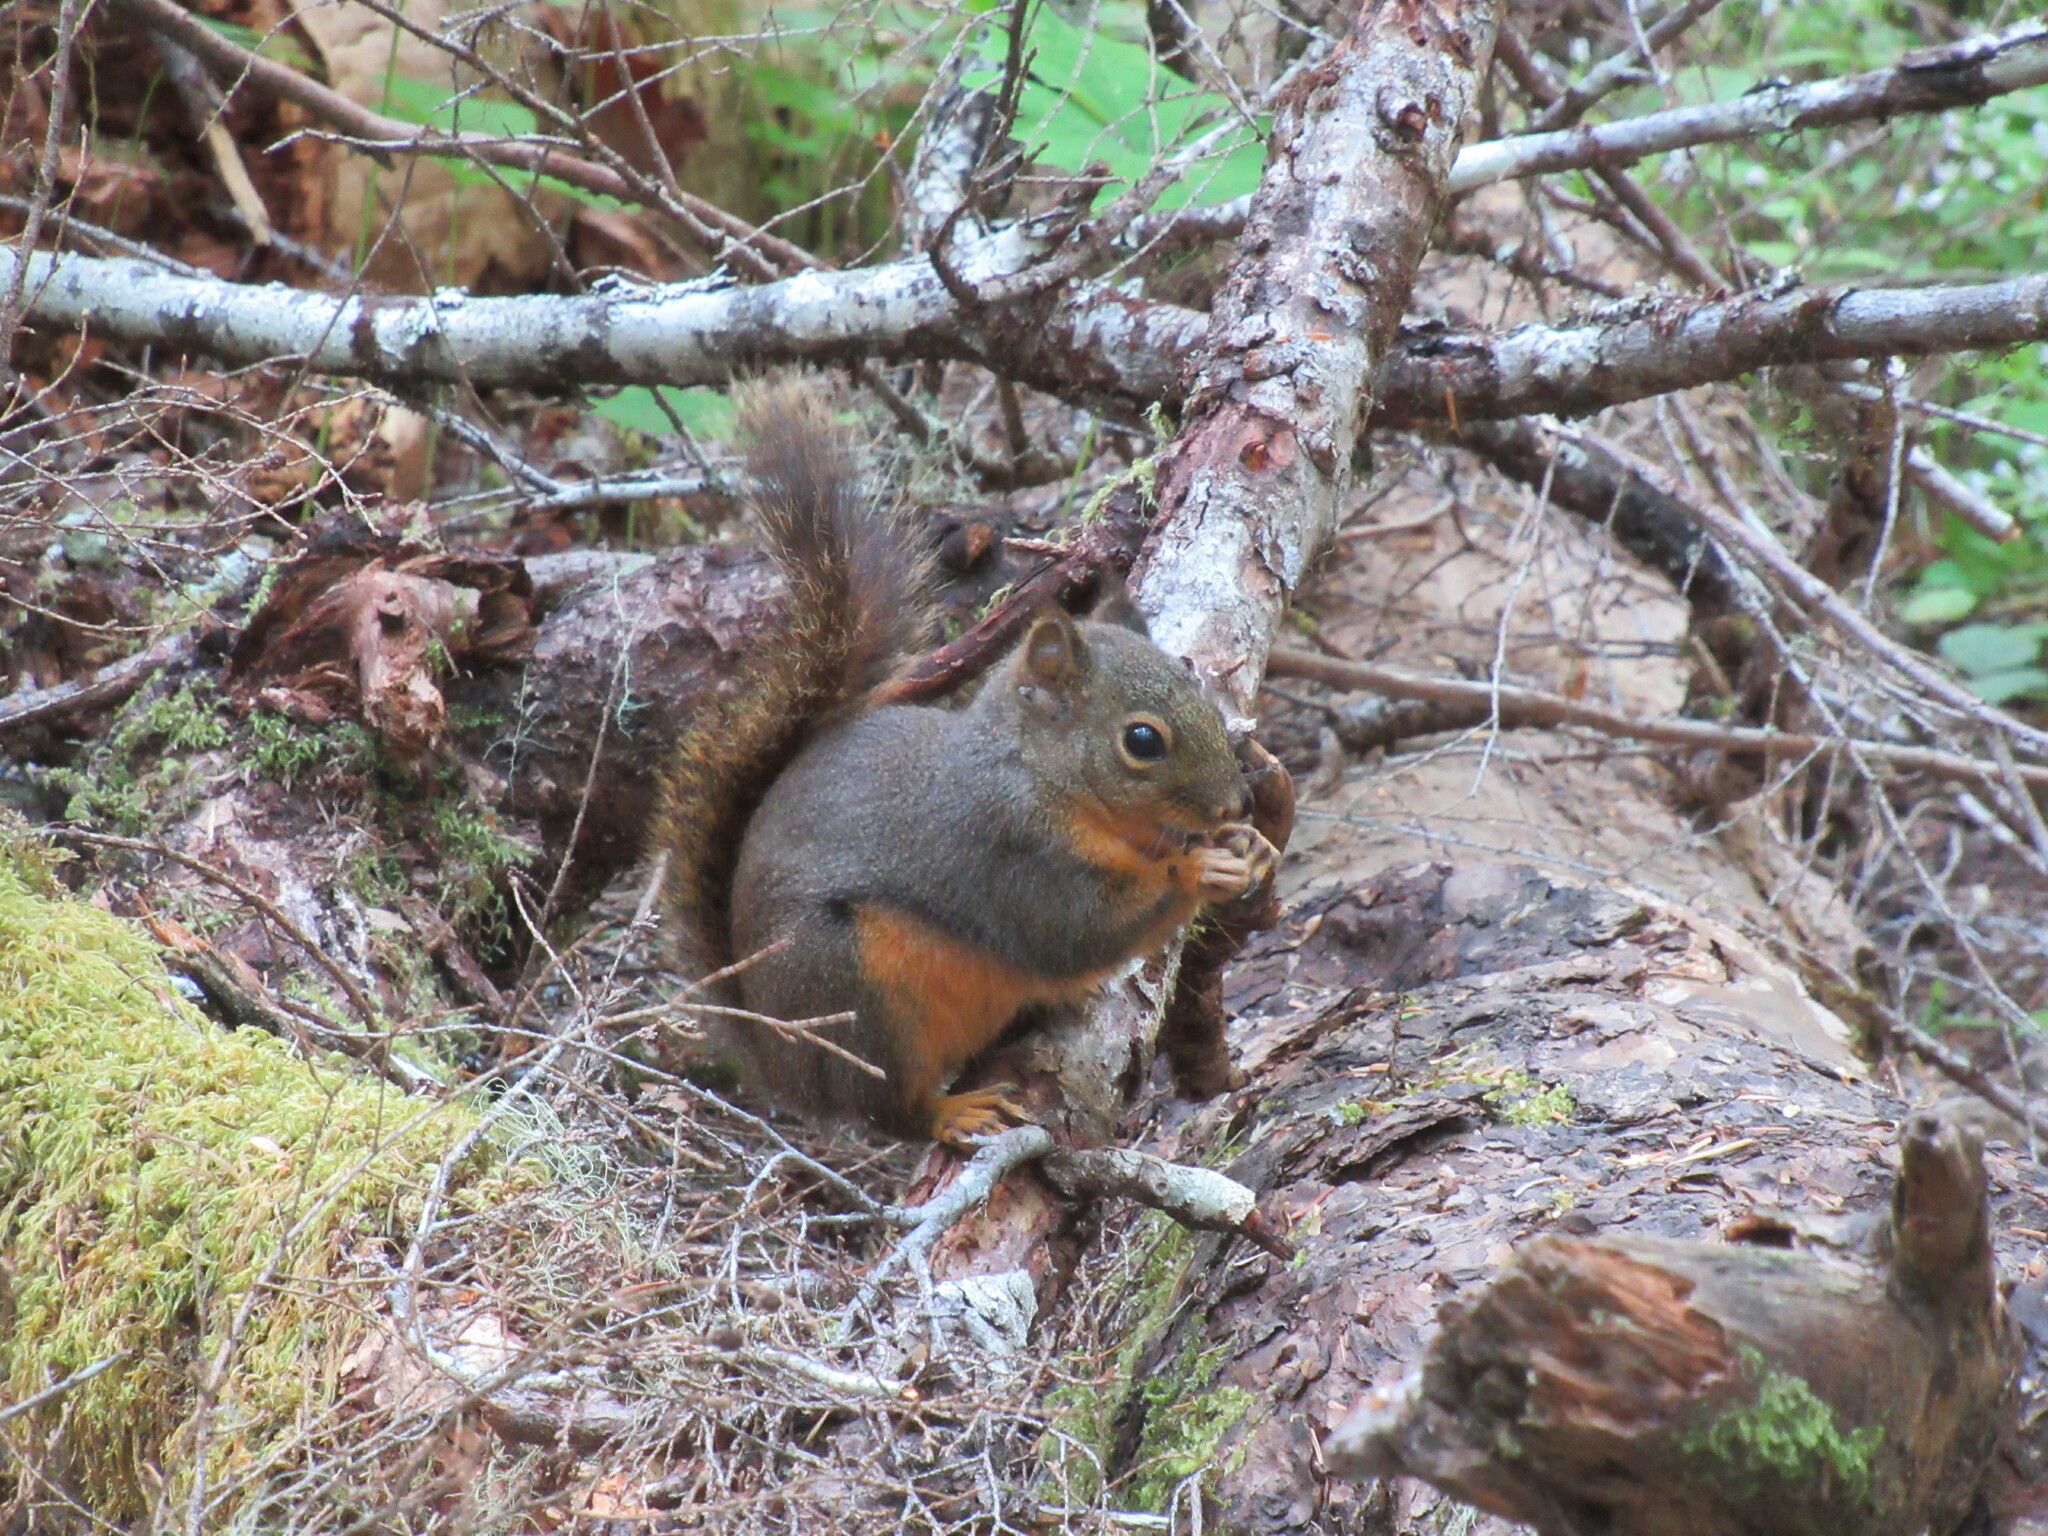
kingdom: Animalia
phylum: Chordata
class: Mammalia
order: Rodentia
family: Sciuridae
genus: Tamiasciurus
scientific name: Tamiasciurus douglasii
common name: Douglas's squirrel
